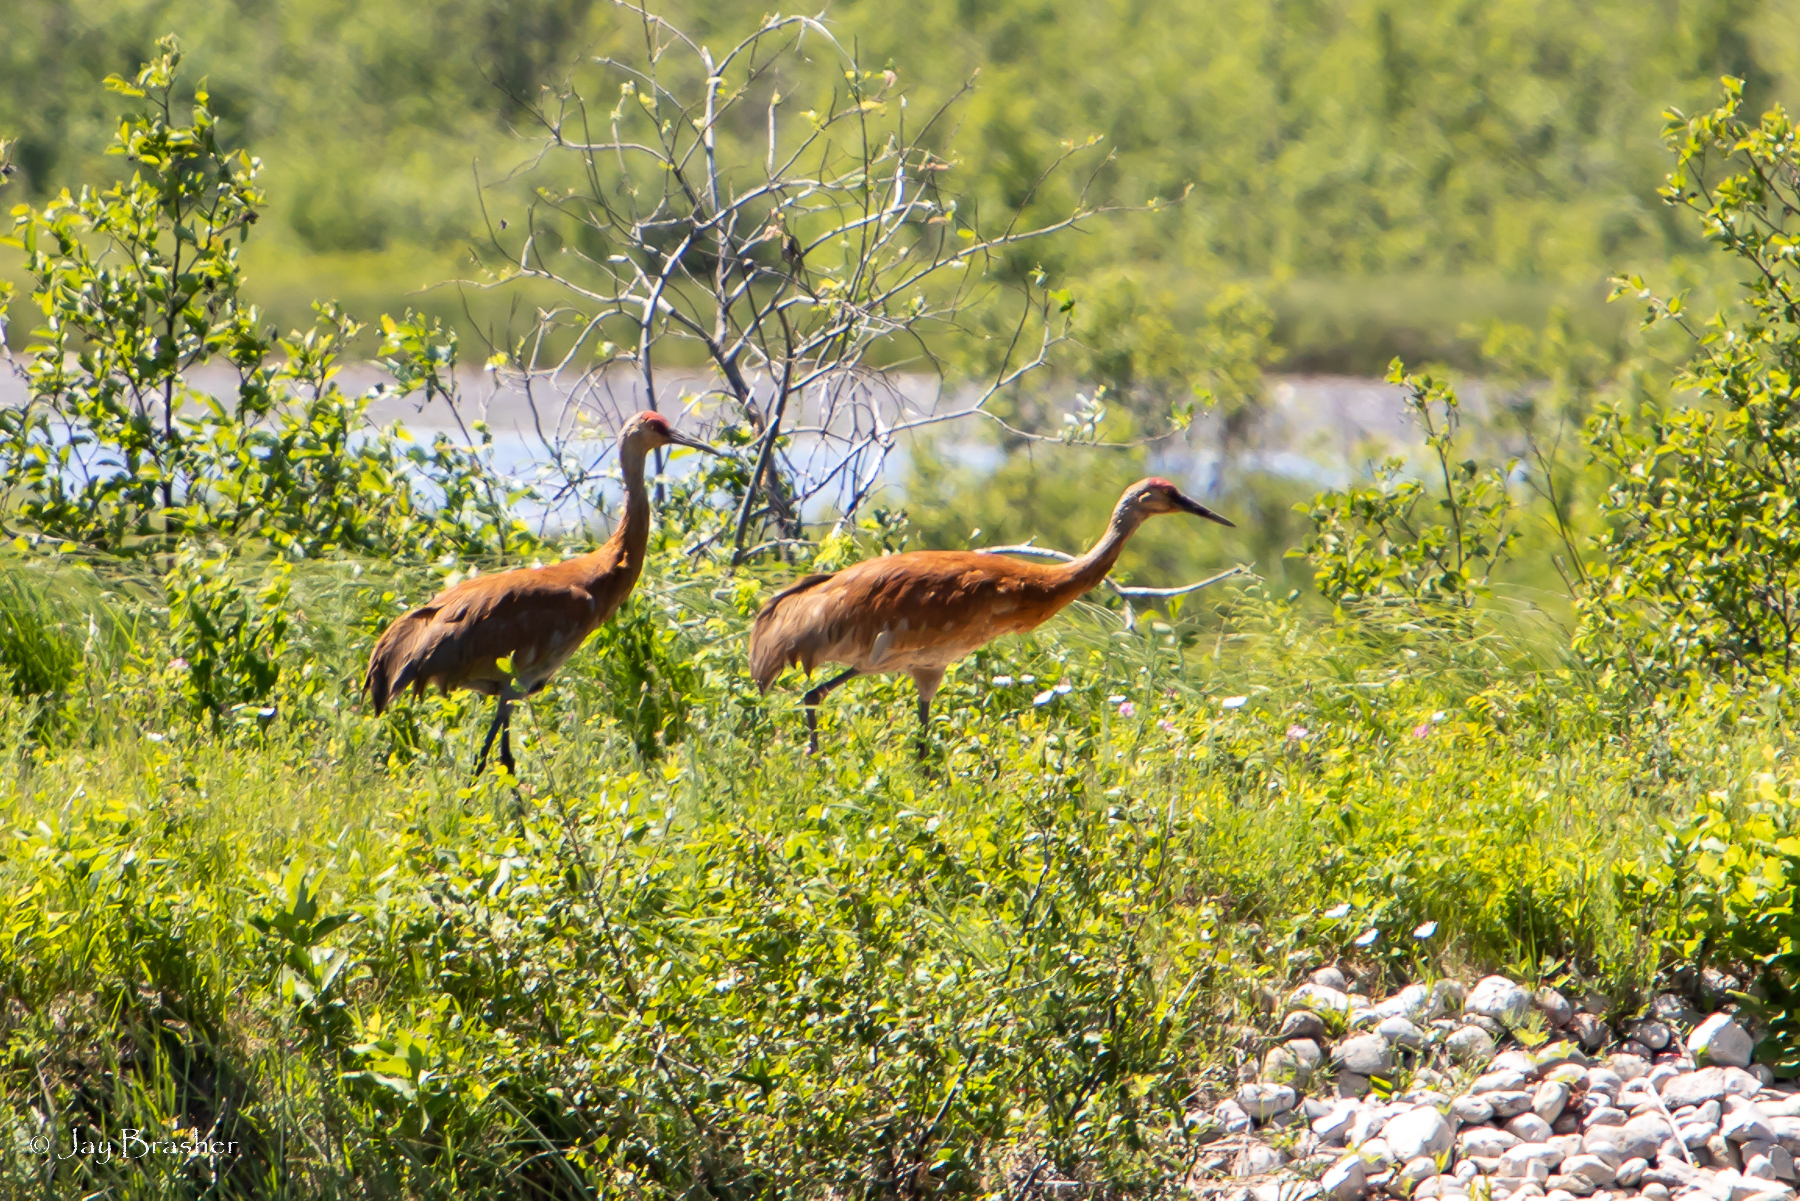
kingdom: Animalia
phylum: Chordata
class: Aves
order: Gruiformes
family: Gruidae
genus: Grus
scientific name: Grus canadensis
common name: Sandhill crane
